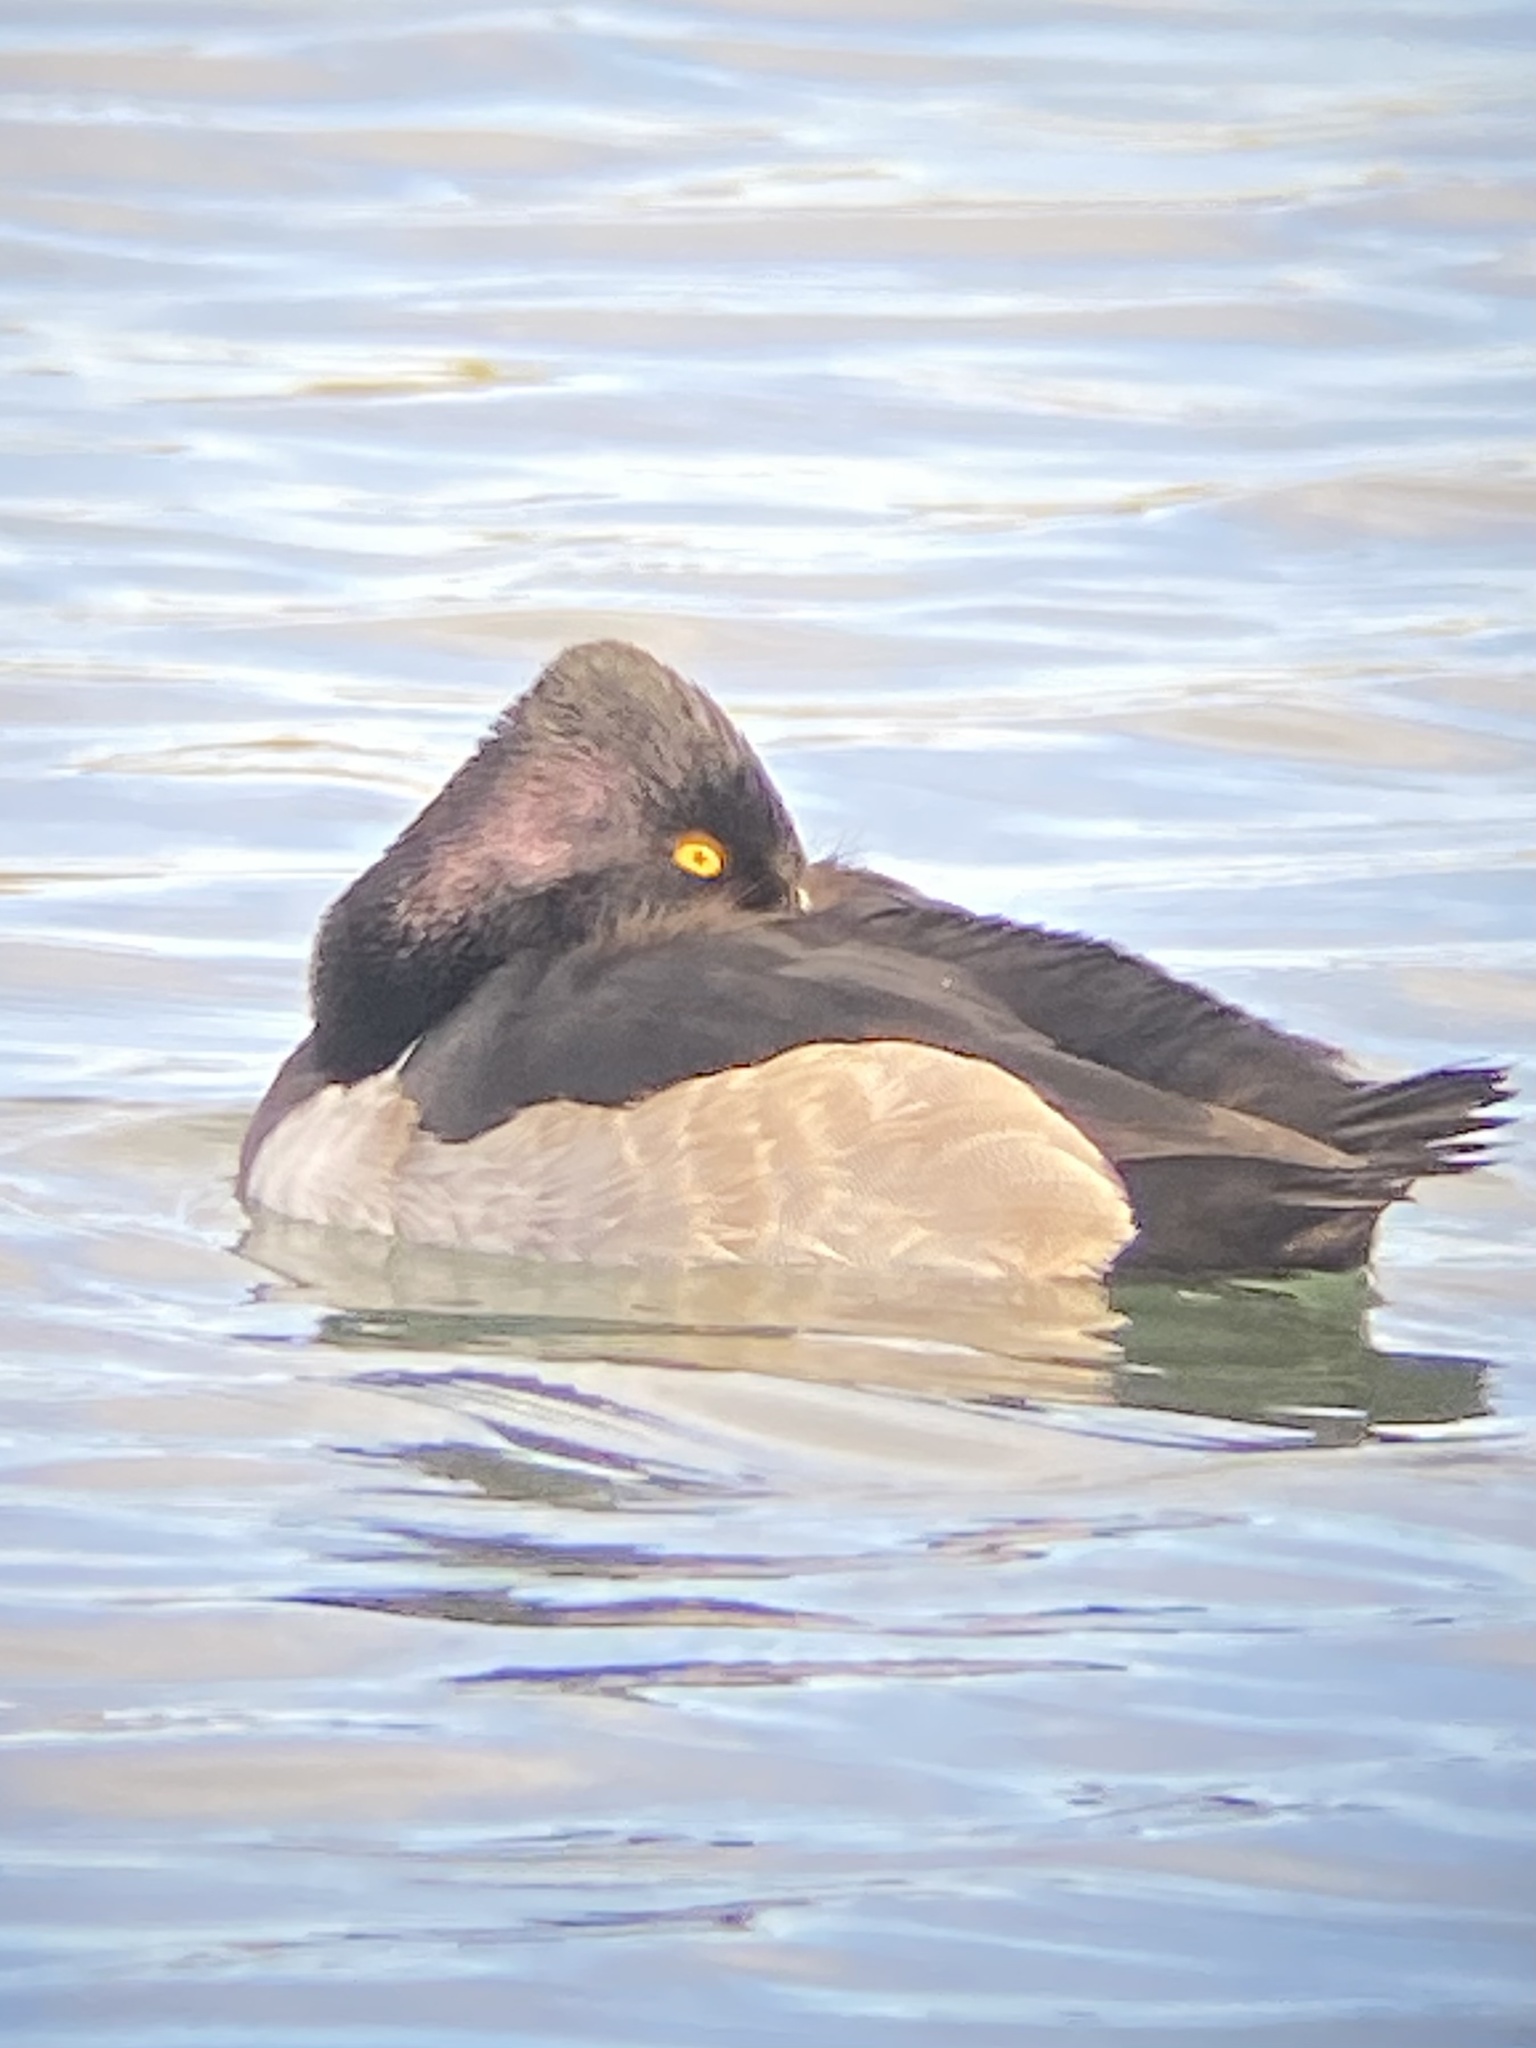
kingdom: Animalia
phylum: Chordata
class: Aves
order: Anseriformes
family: Anatidae
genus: Aythya
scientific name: Aythya collaris
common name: Ring-necked duck
